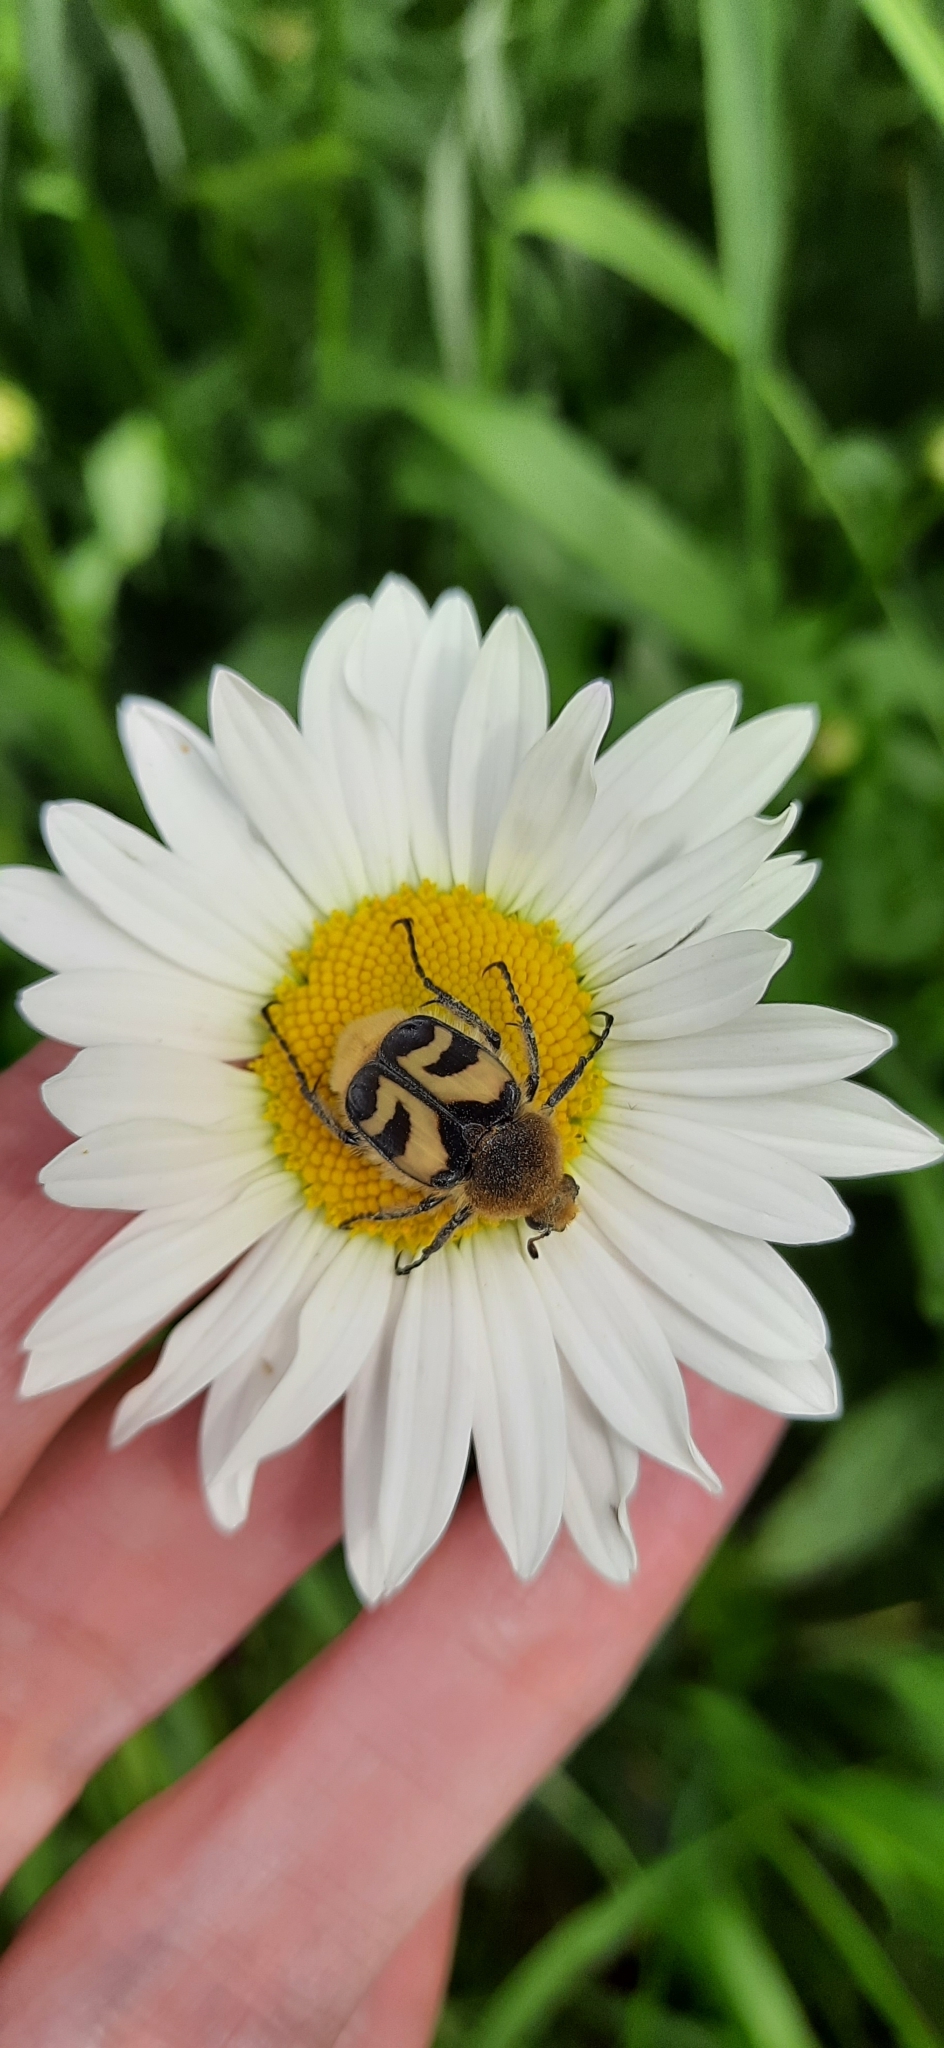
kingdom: Animalia
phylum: Arthropoda
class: Insecta
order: Coleoptera
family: Scarabaeidae
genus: Trichius
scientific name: Trichius fasciatus
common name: Bee beetle
